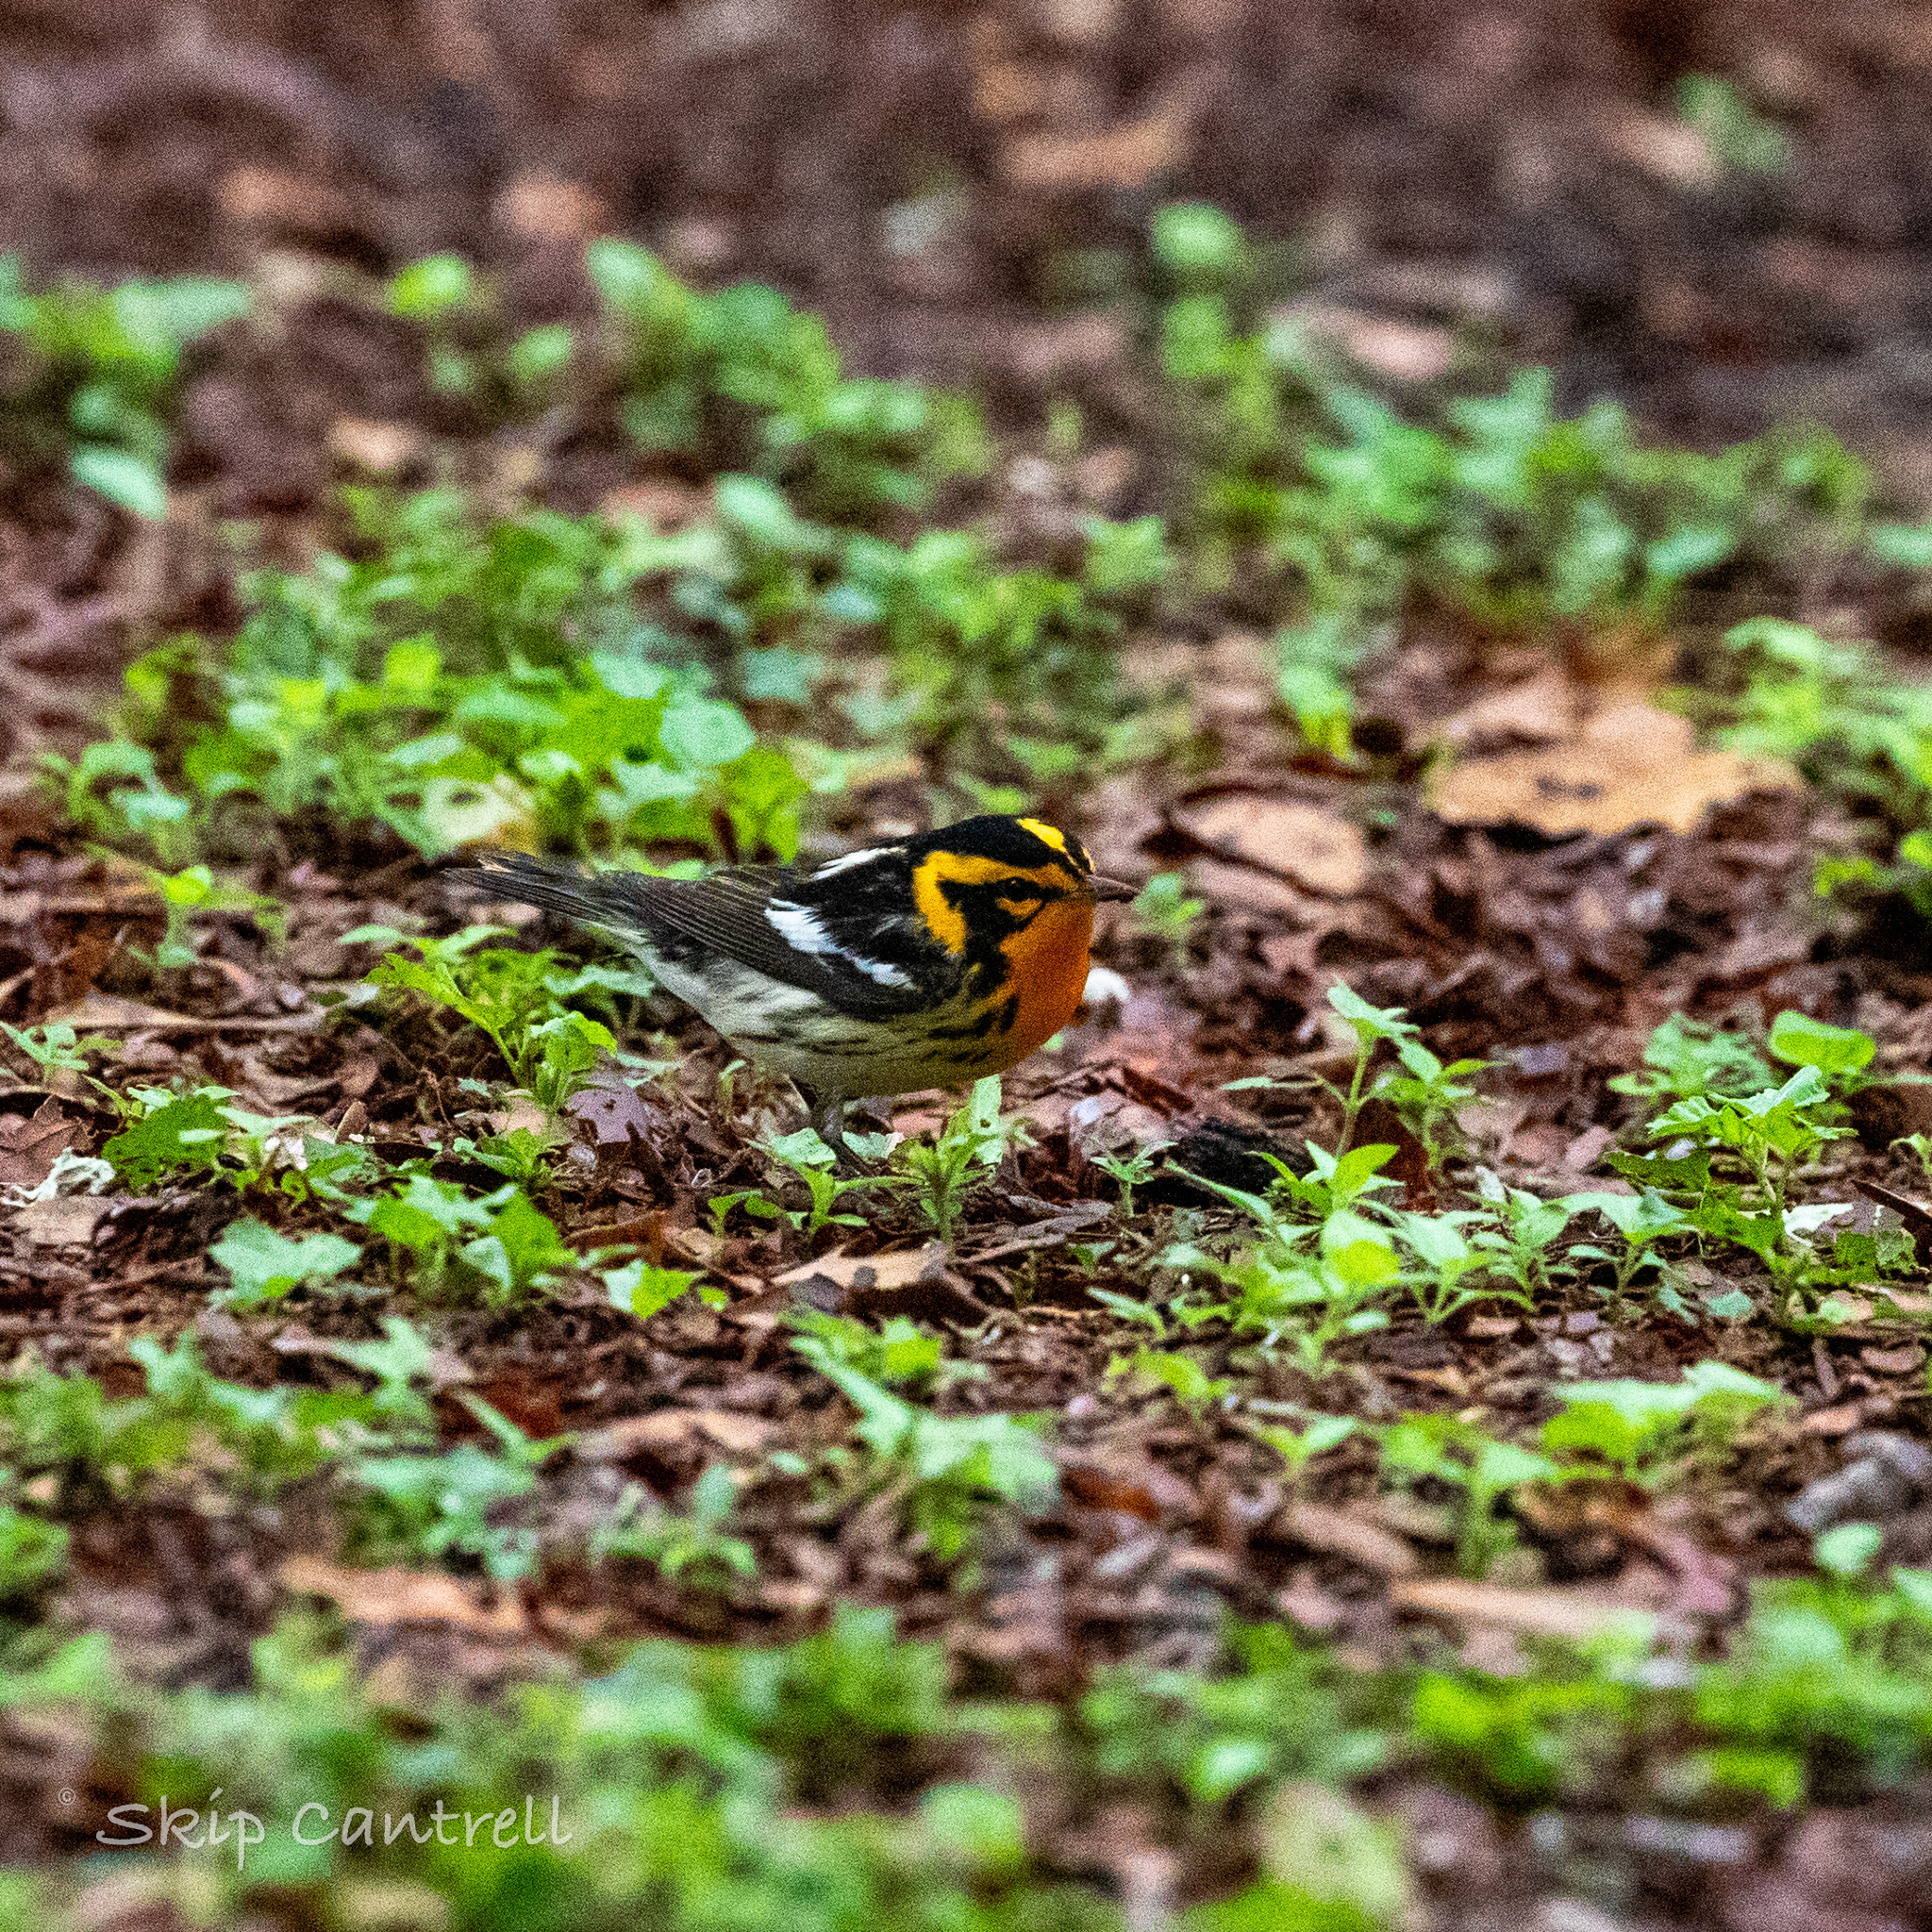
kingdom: Animalia
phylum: Chordata
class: Aves
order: Passeriformes
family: Parulidae
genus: Setophaga
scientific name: Setophaga fusca
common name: Blackburnian warbler
